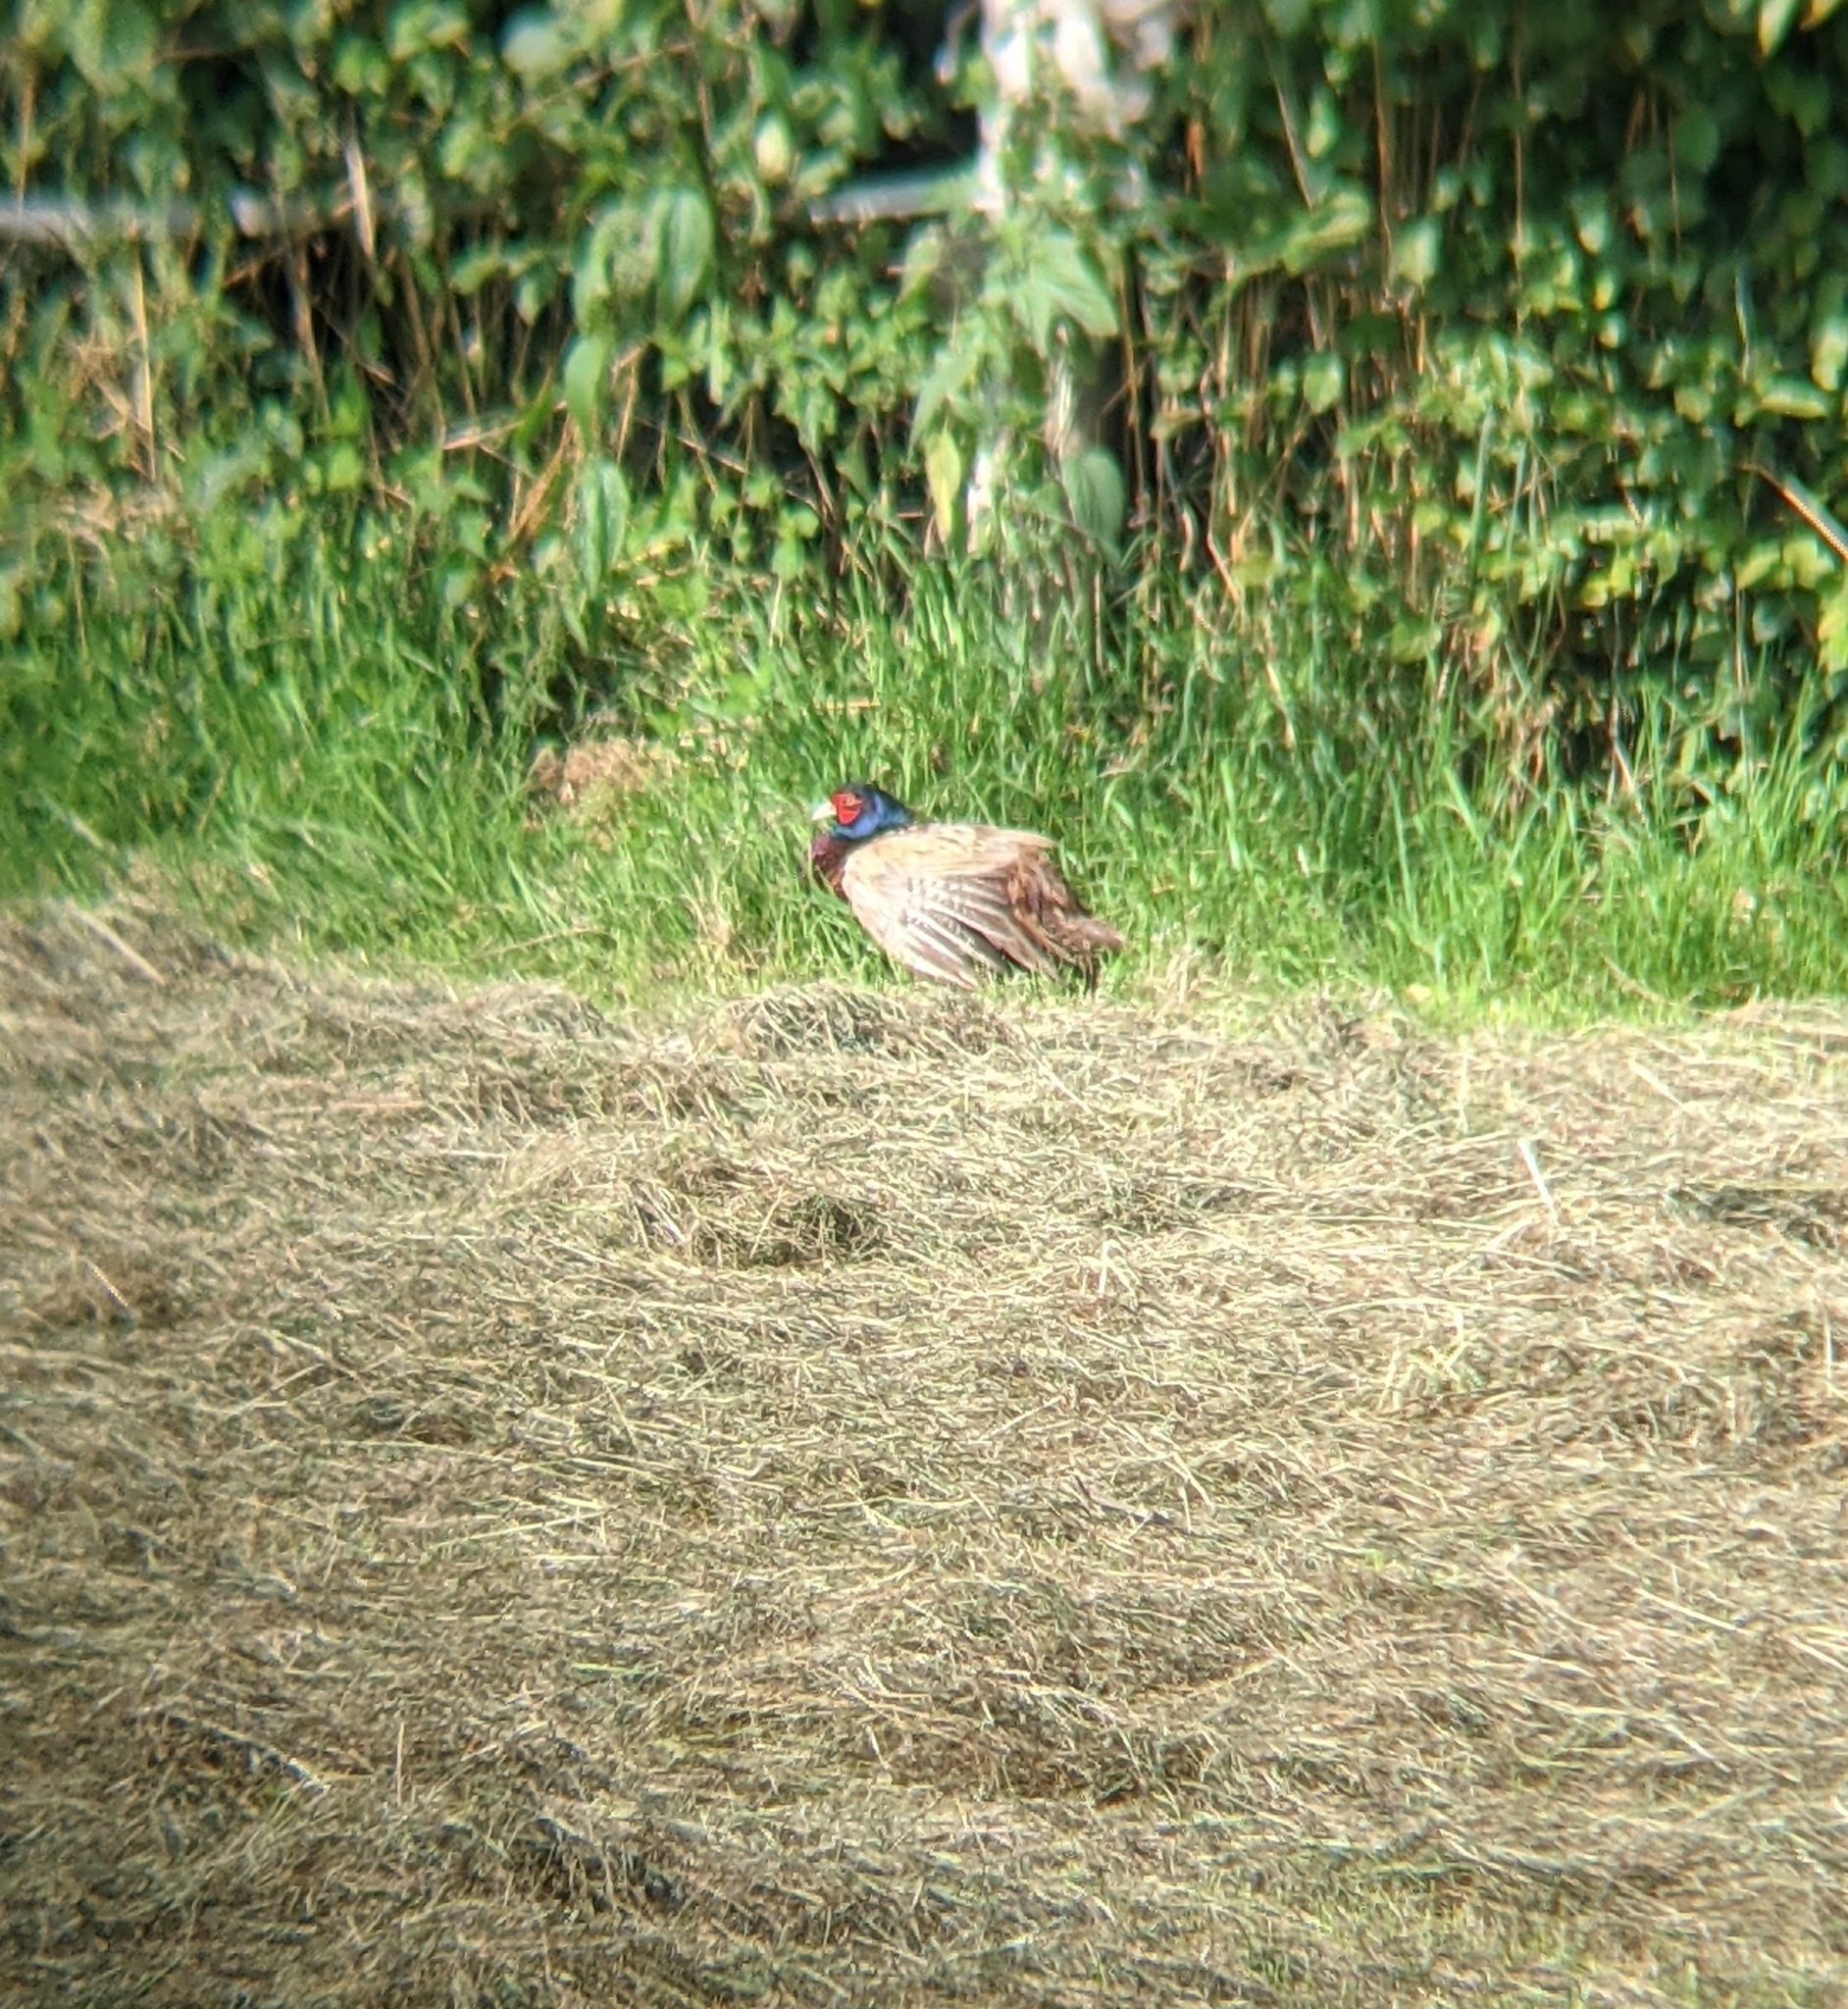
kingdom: Animalia
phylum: Chordata
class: Aves
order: Galliformes
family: Phasianidae
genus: Phasianus
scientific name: Phasianus colchicus
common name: Common pheasant
